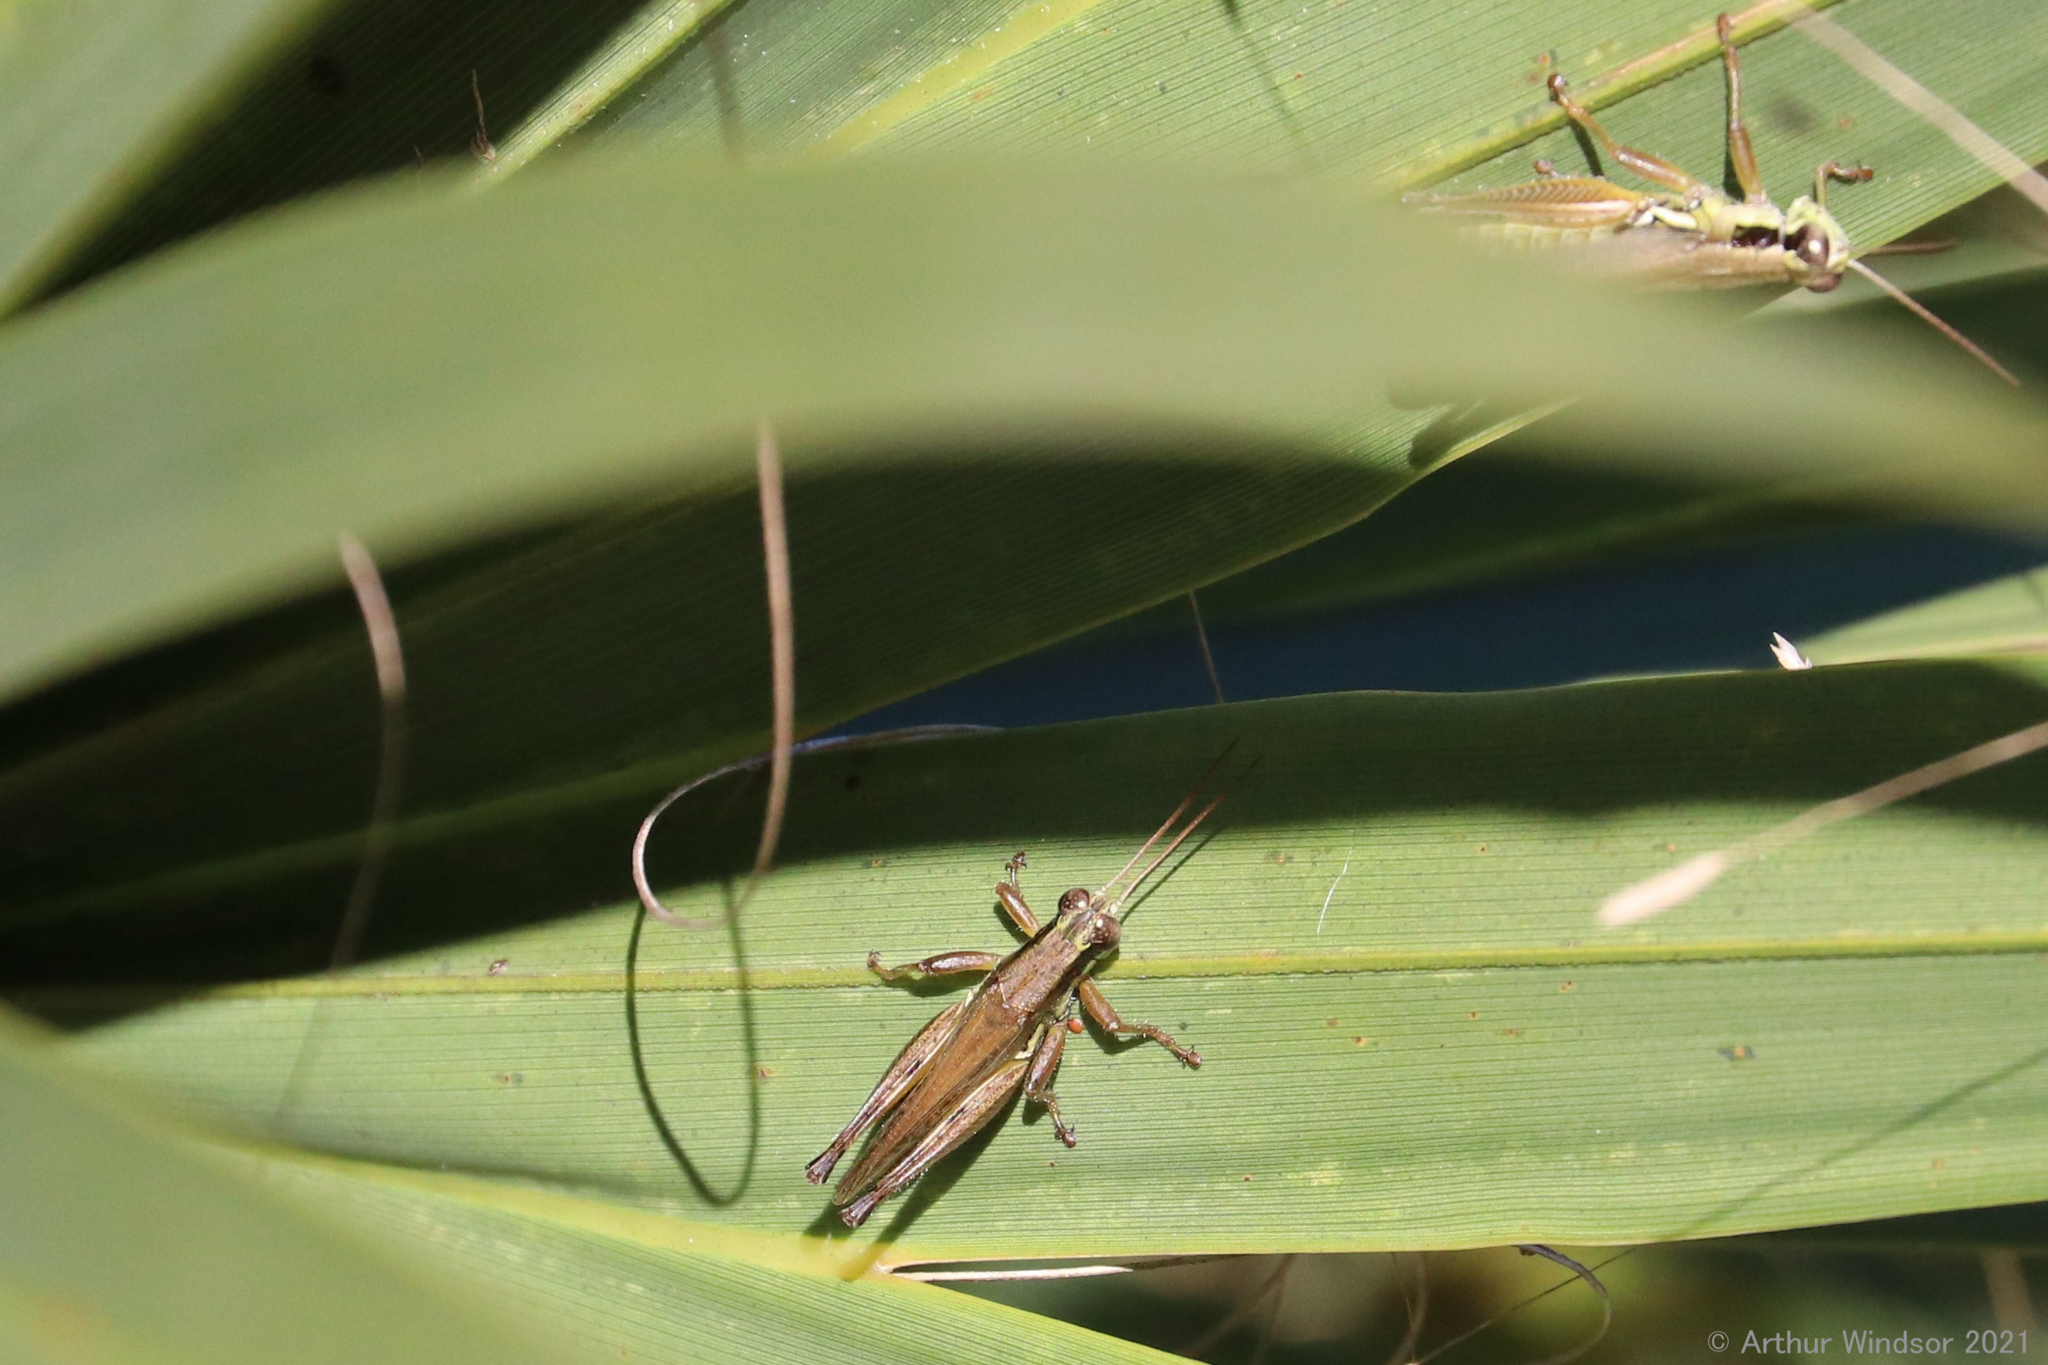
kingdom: Animalia
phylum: Arthropoda
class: Insecta
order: Orthoptera
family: Acrididae
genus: Paroxya
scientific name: Paroxya atlantica
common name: Atlantic grasshopper
